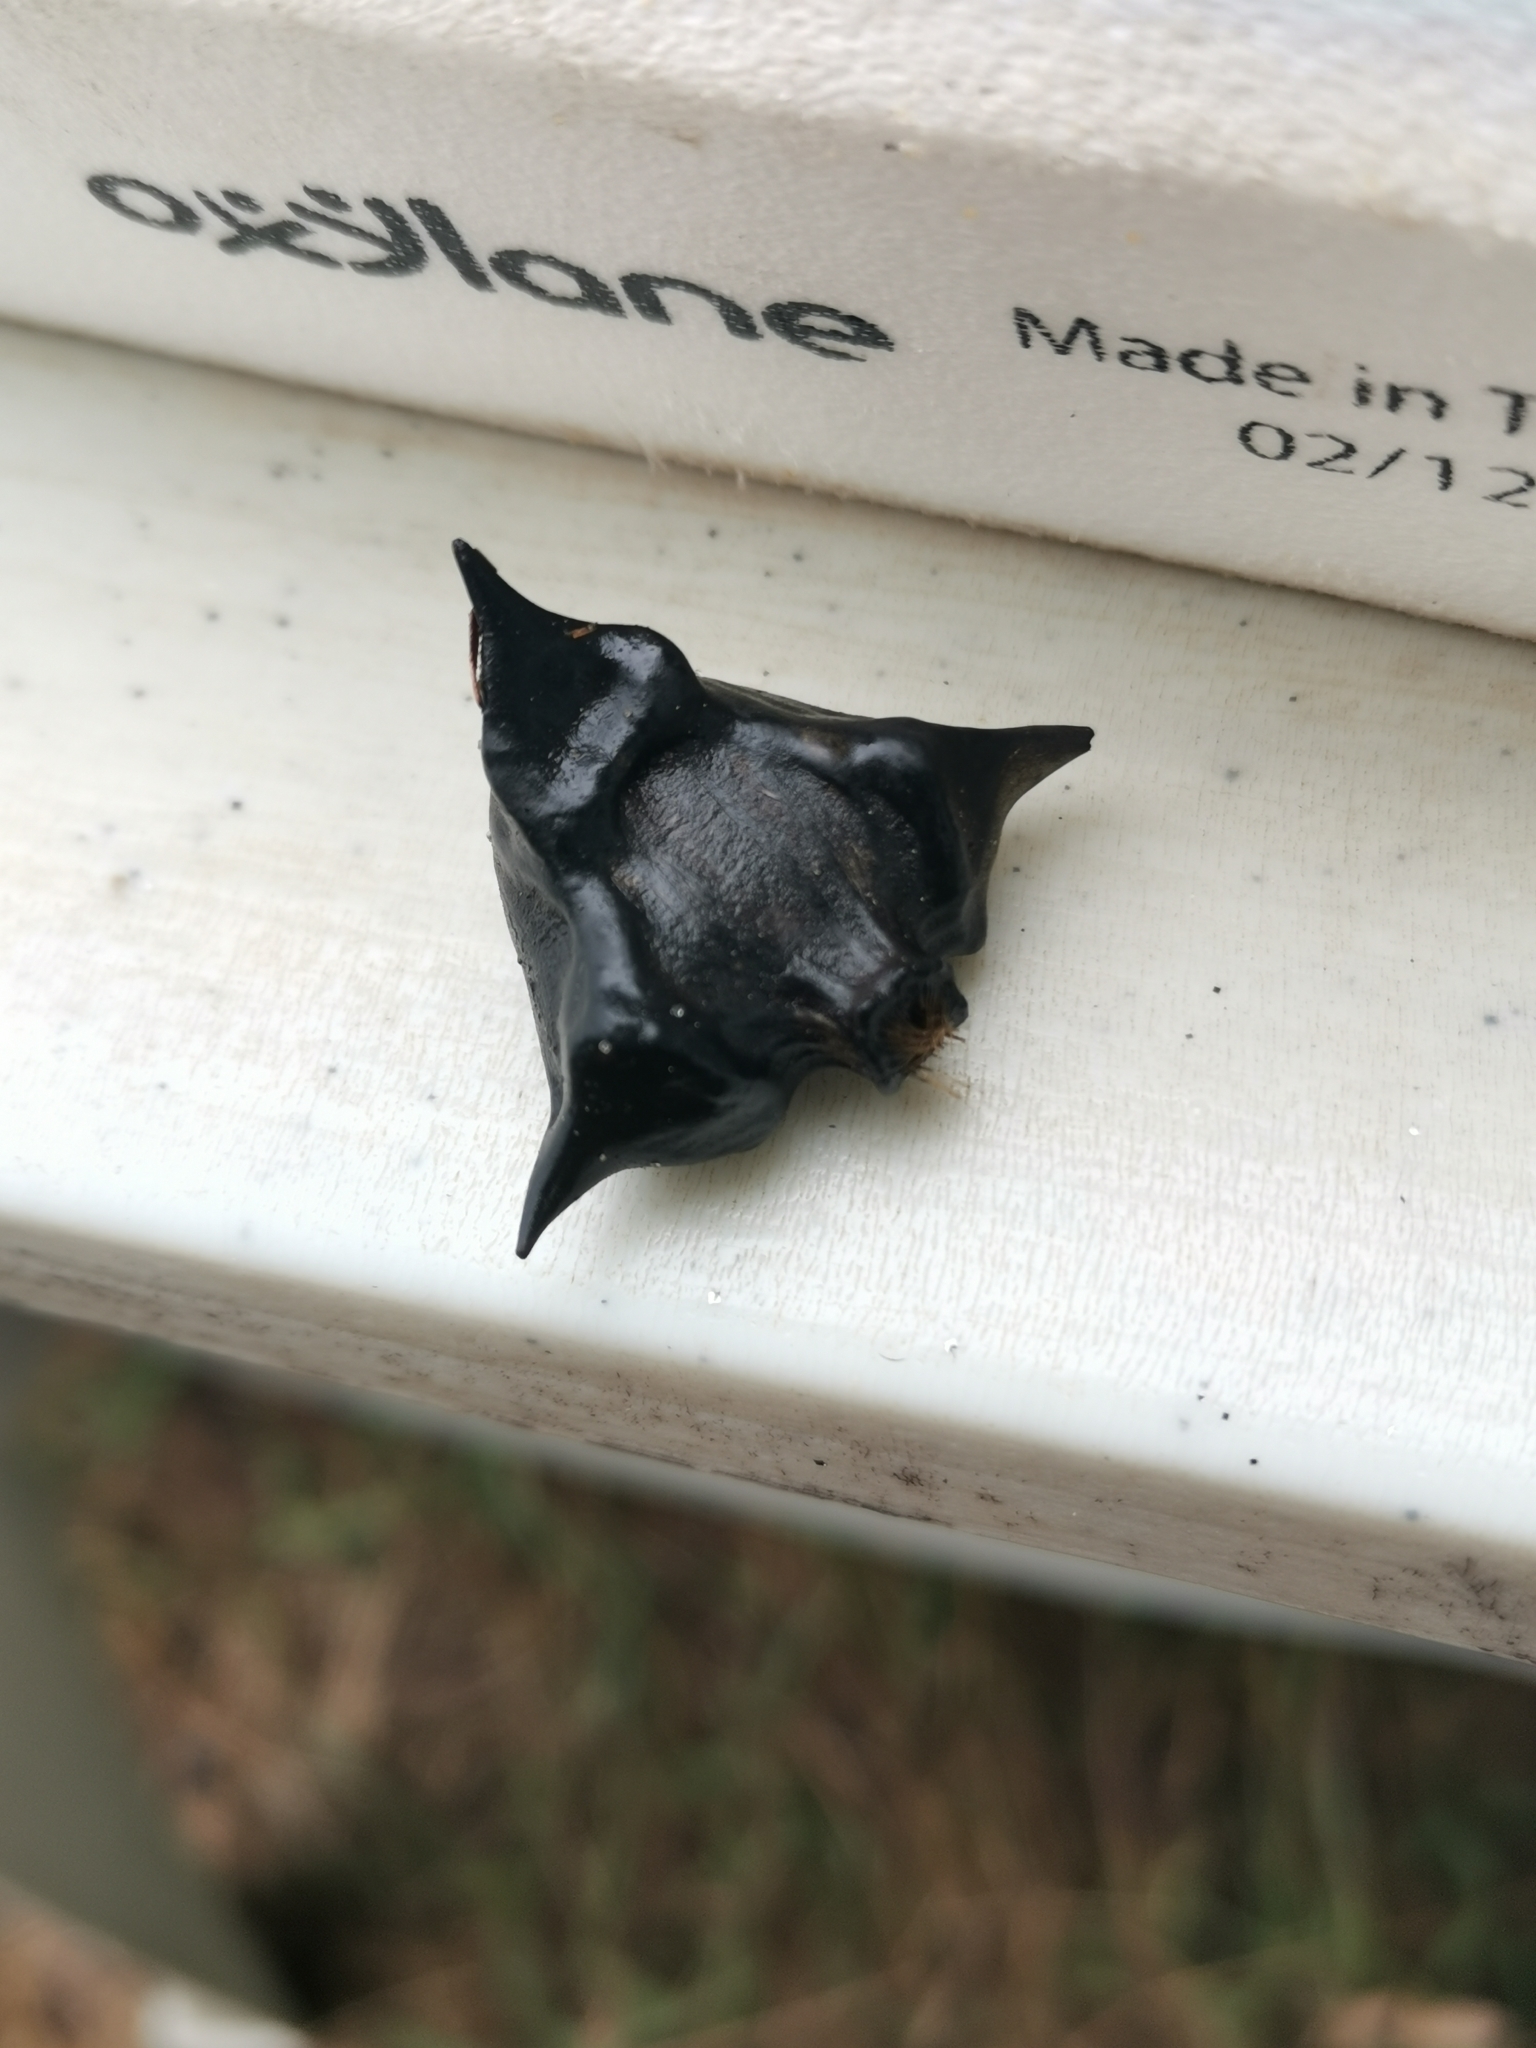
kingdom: Plantae
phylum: Tracheophyta
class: Magnoliopsida
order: Myrtales
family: Lythraceae
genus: Trapa
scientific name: Trapa natans
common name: Water chestnut
